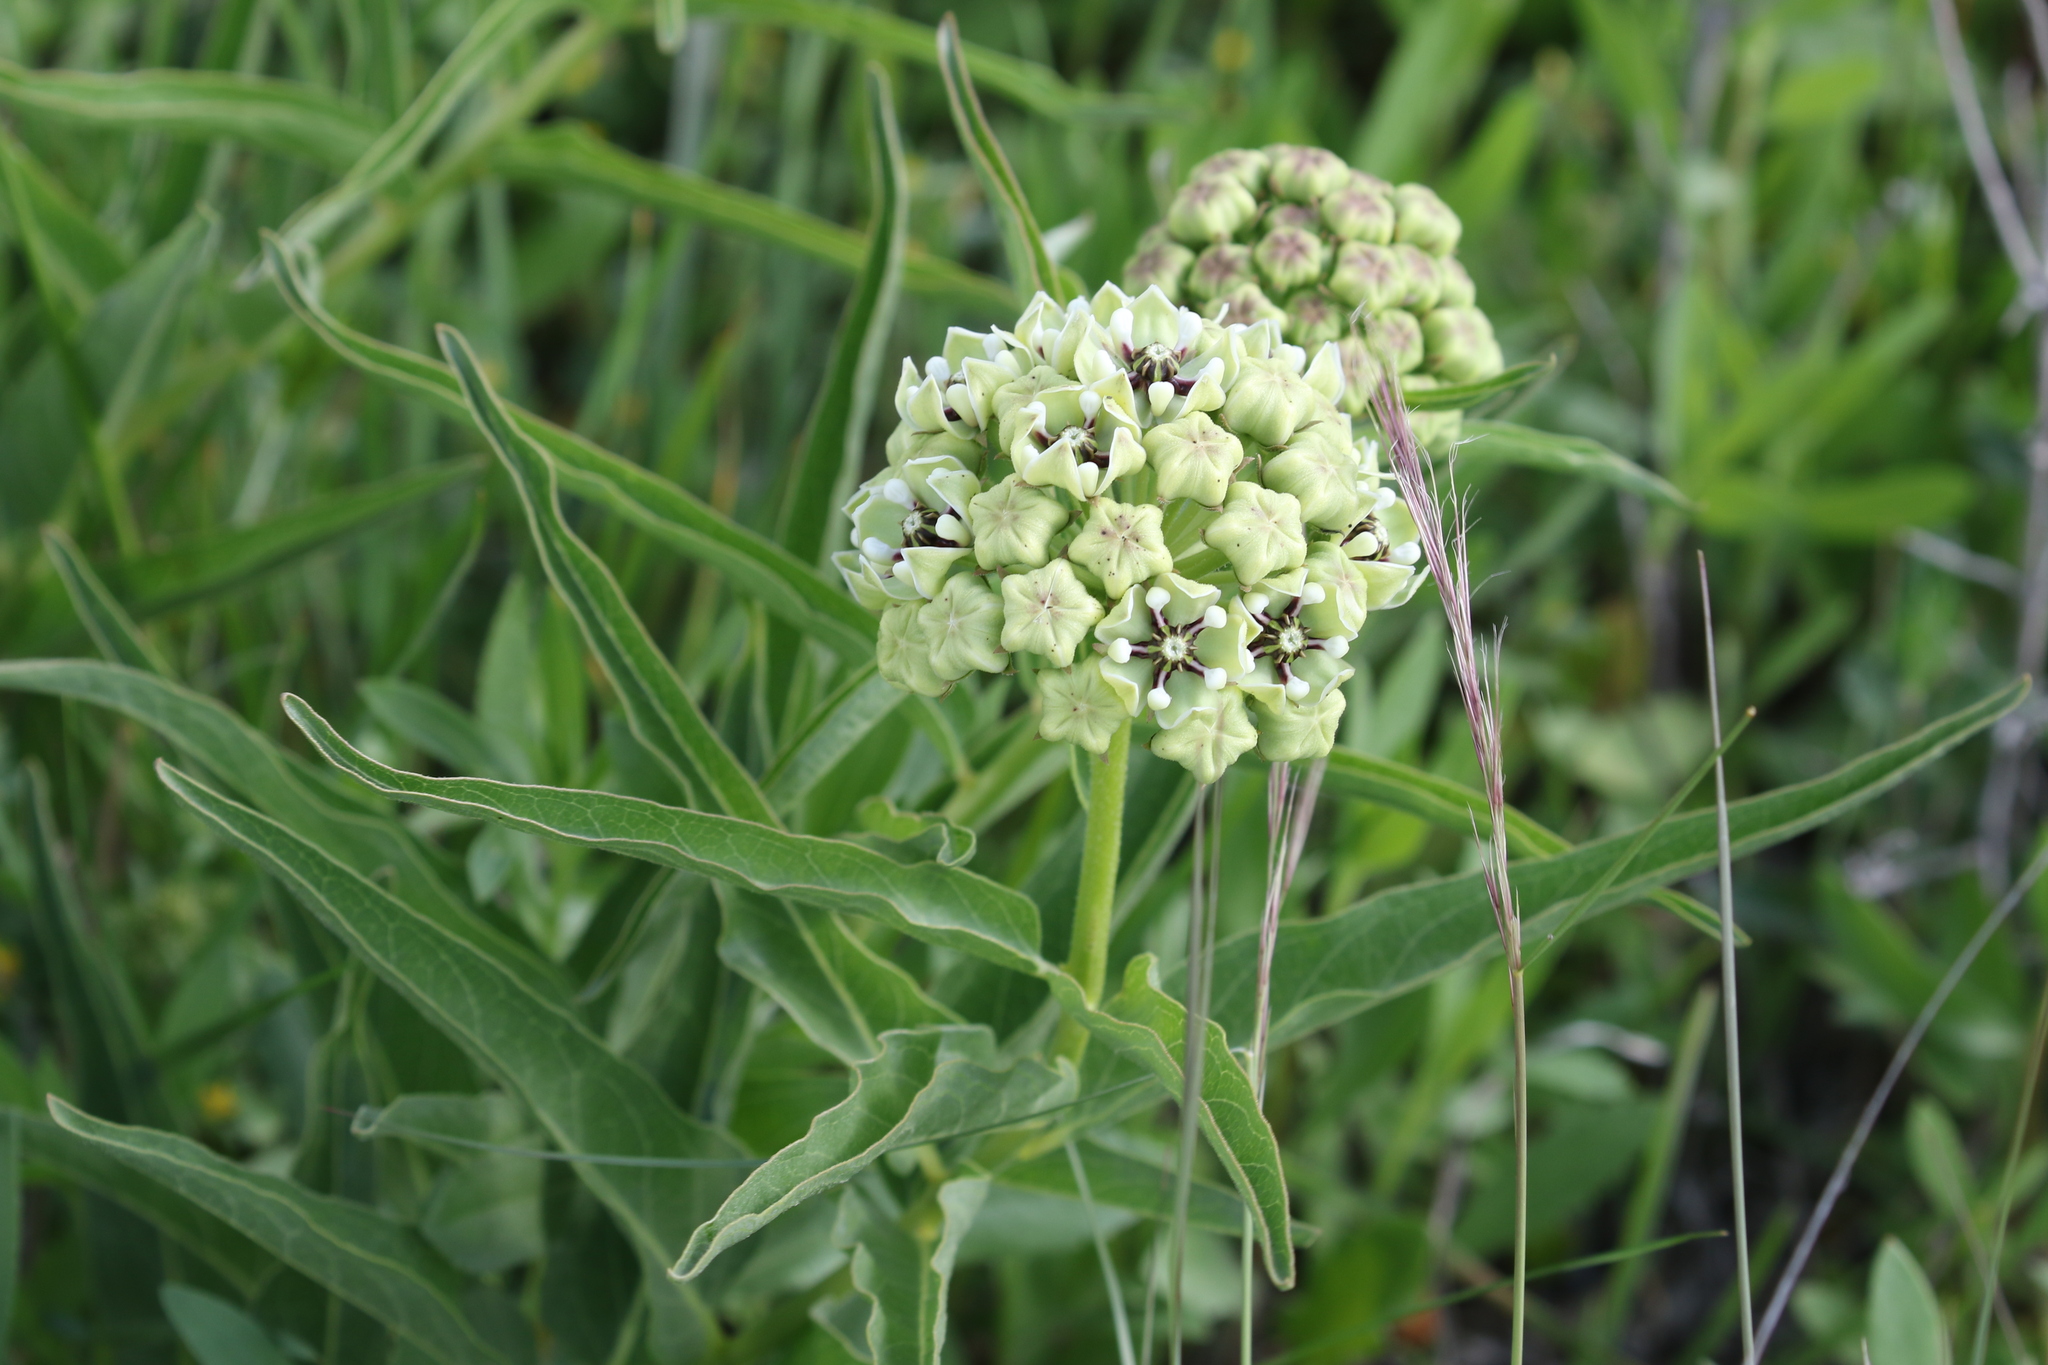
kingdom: Plantae
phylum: Tracheophyta
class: Magnoliopsida
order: Gentianales
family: Apocynaceae
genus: Asclepias
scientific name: Asclepias asperula
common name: Antelope horns
